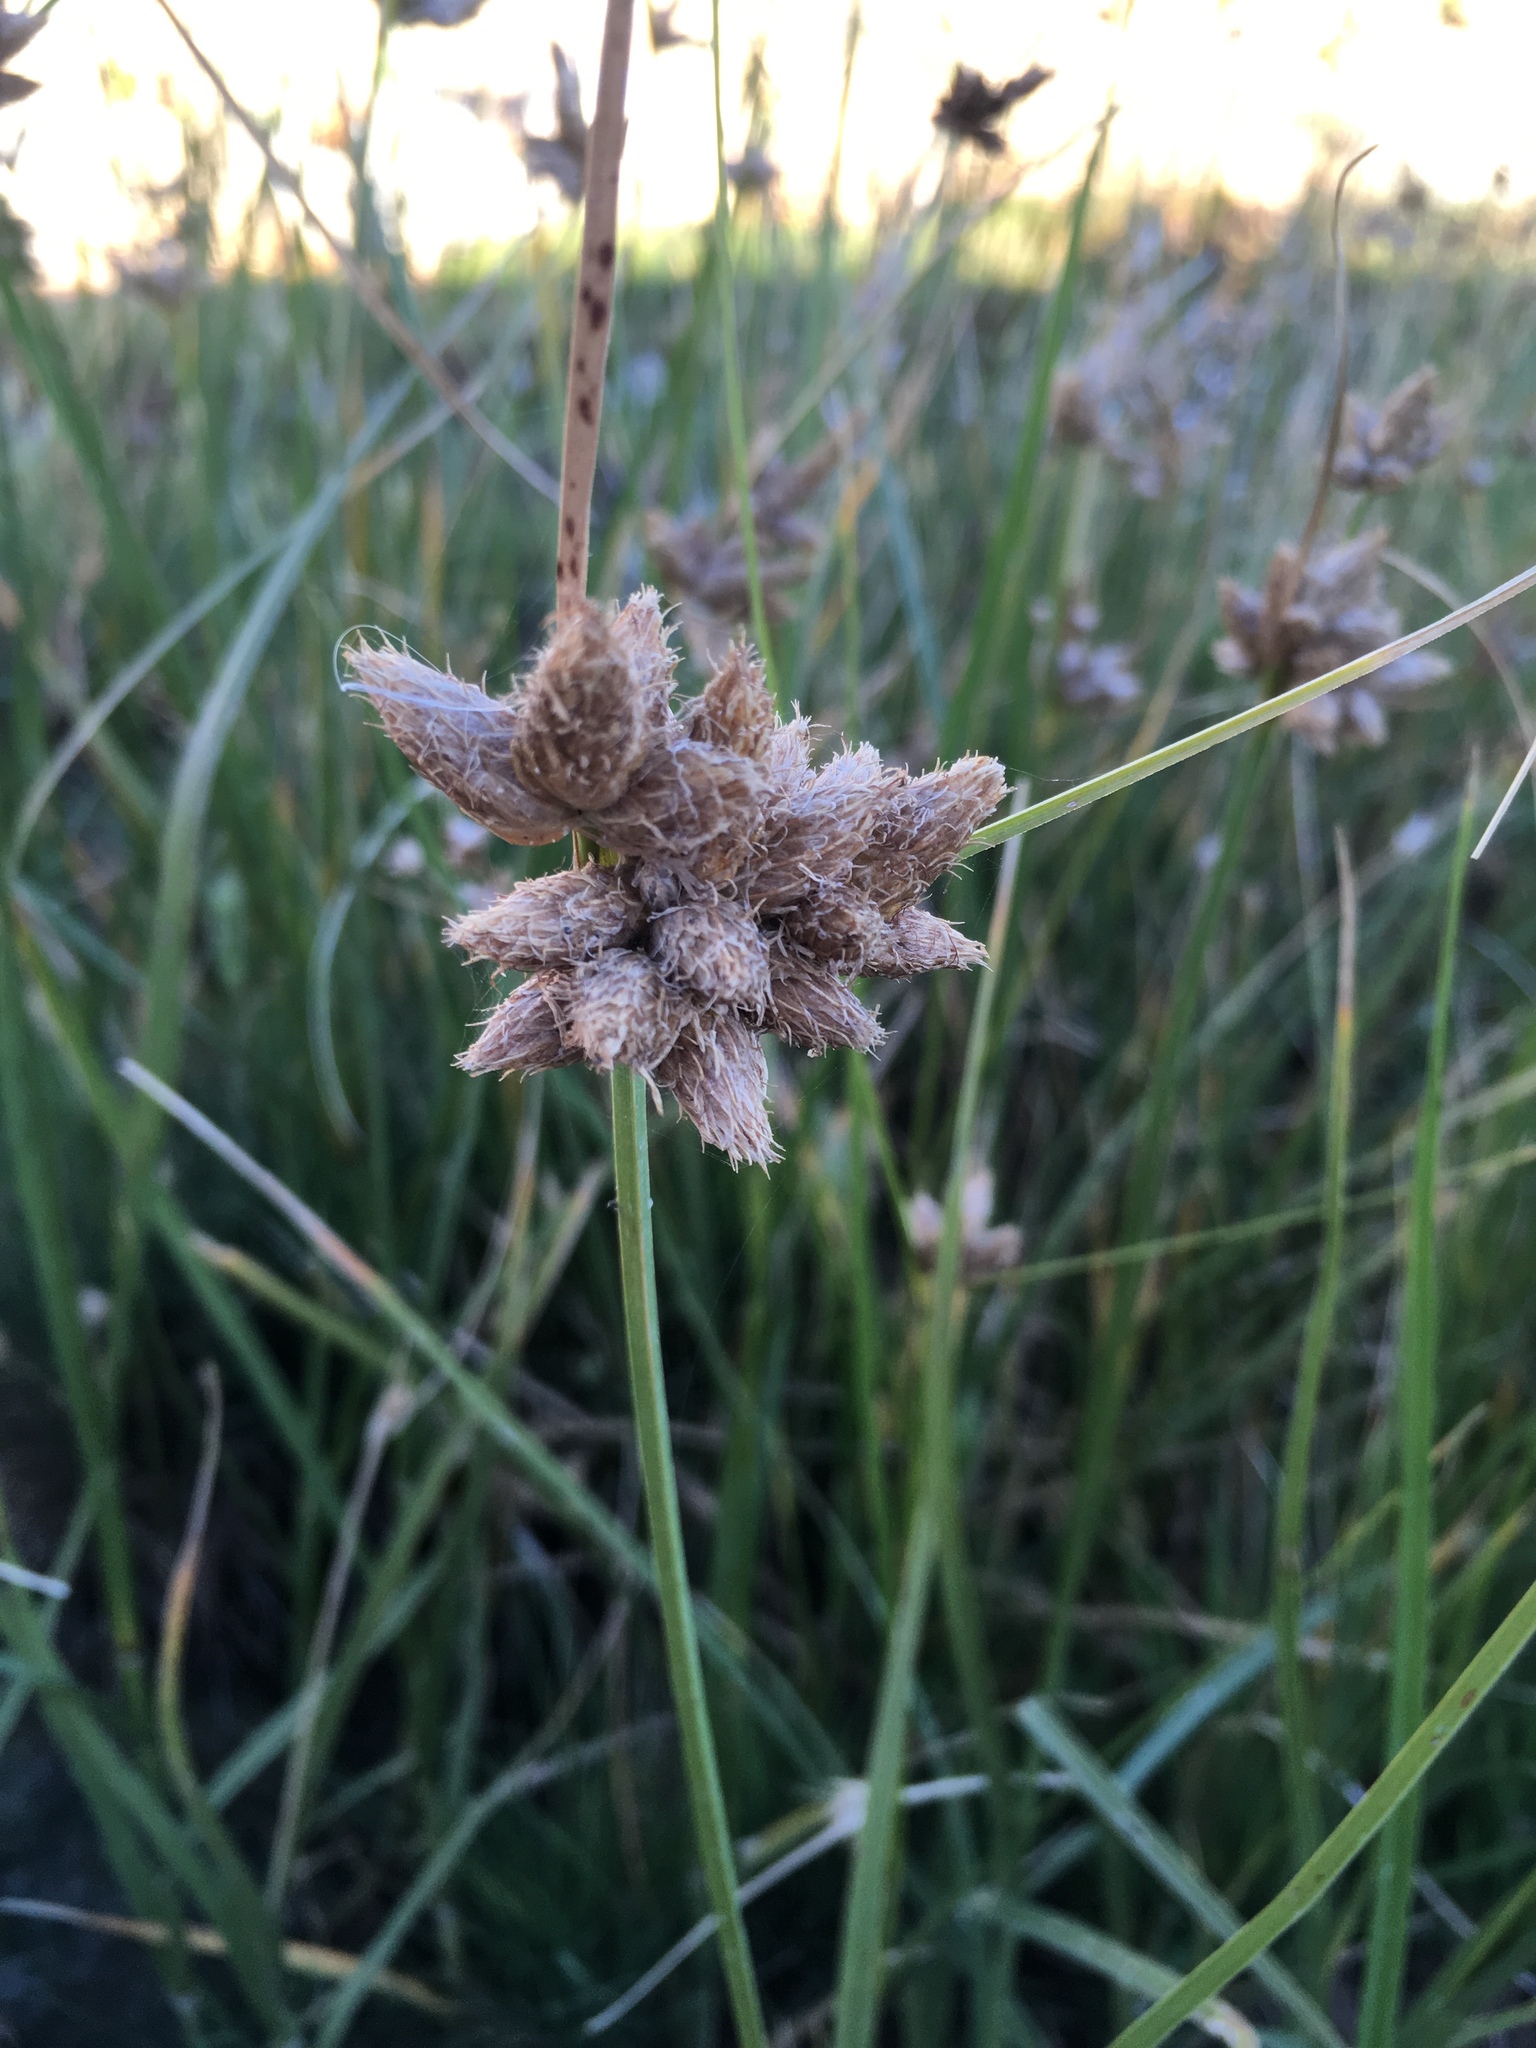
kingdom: Plantae
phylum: Tracheophyta
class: Liliopsida
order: Poales
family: Cyperaceae
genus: Bolboschoenus
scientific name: Bolboschoenus maritimus
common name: Sea club-rush
